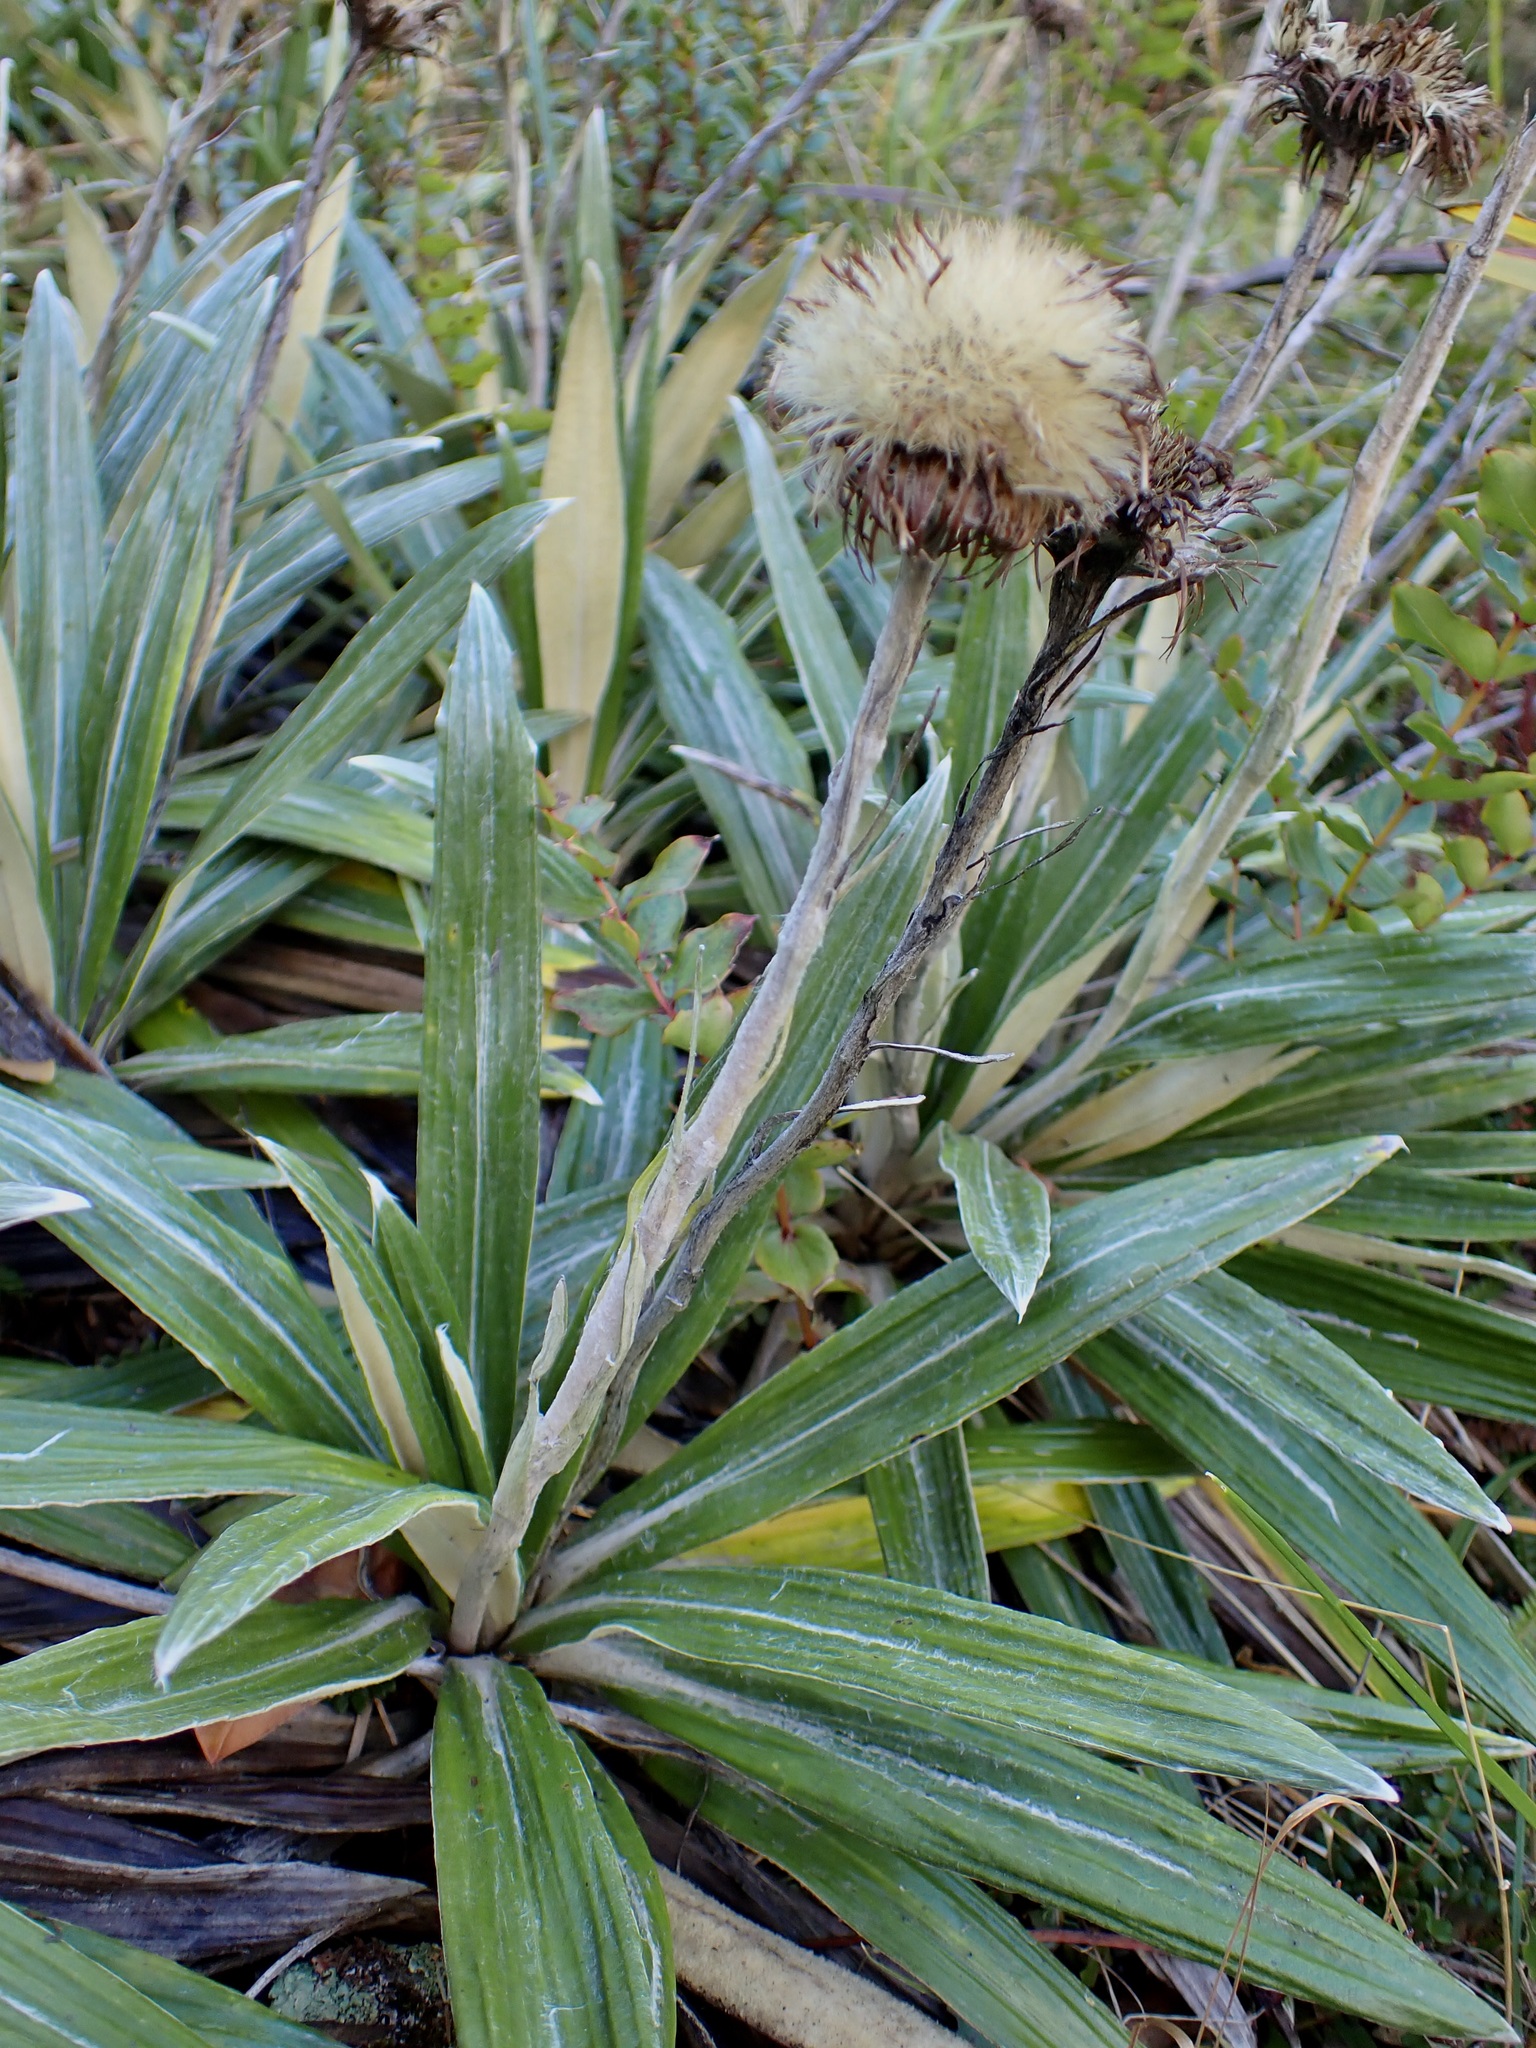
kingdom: Plantae
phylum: Tracheophyta
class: Magnoliopsida
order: Asterales
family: Asteraceae
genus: Celmisia
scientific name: Celmisia spectabilis
